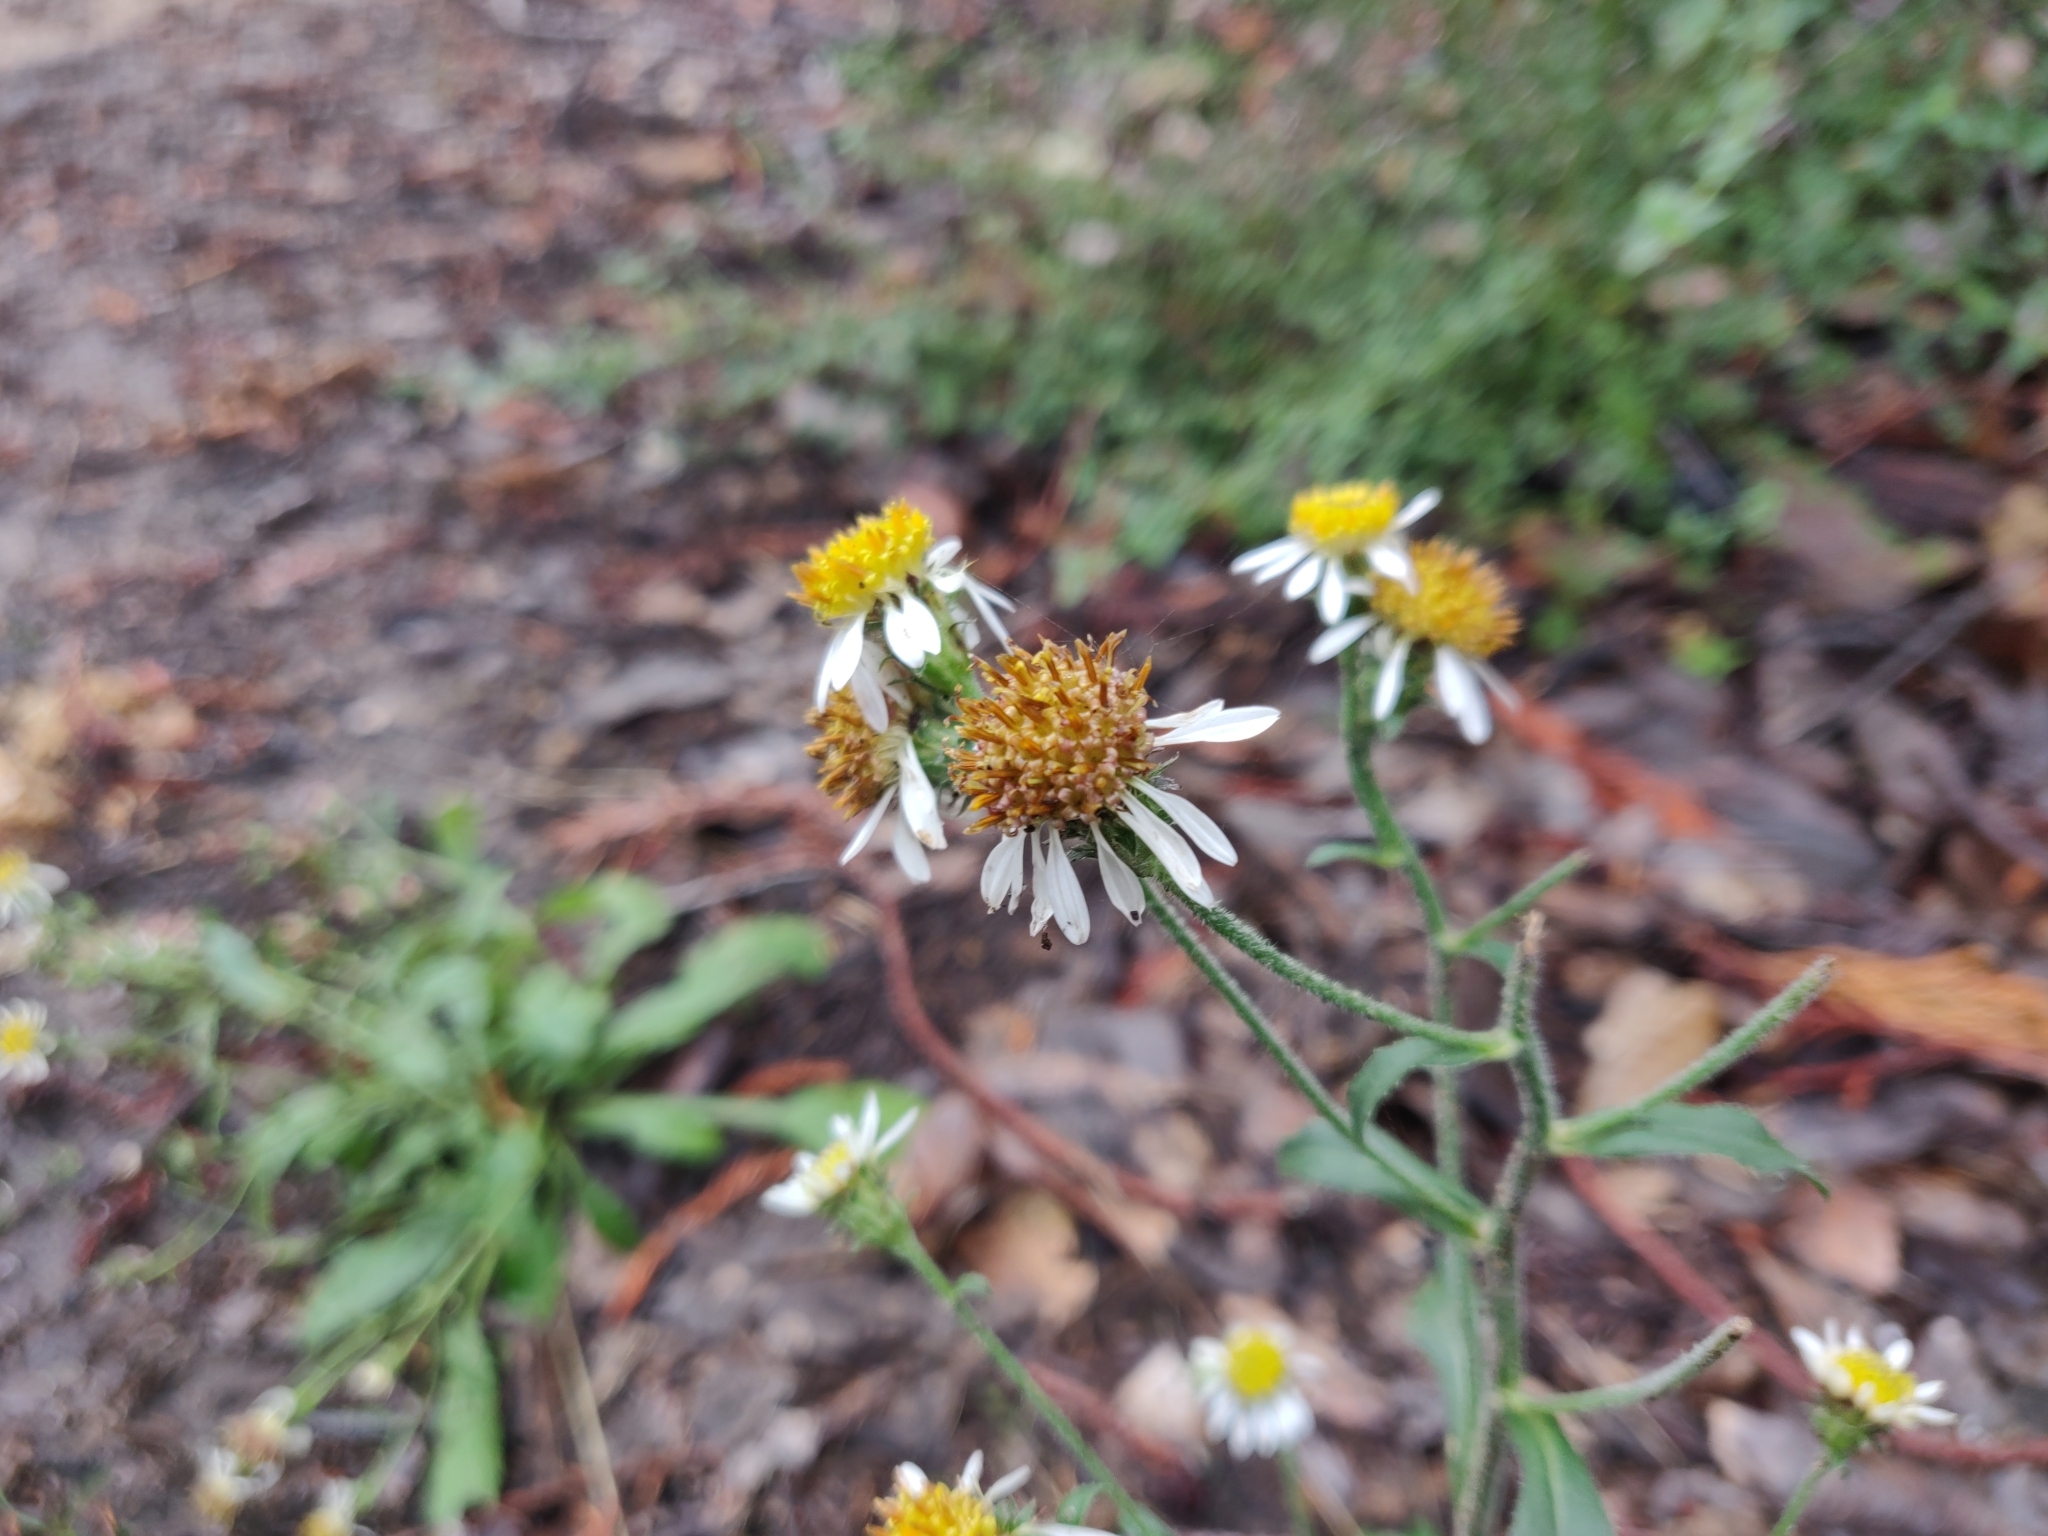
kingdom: Plantae
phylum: Tracheophyta
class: Magnoliopsida
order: Asterales
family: Asteraceae
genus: Eurybia
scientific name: Eurybia radulina
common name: Rough-leaved aster
